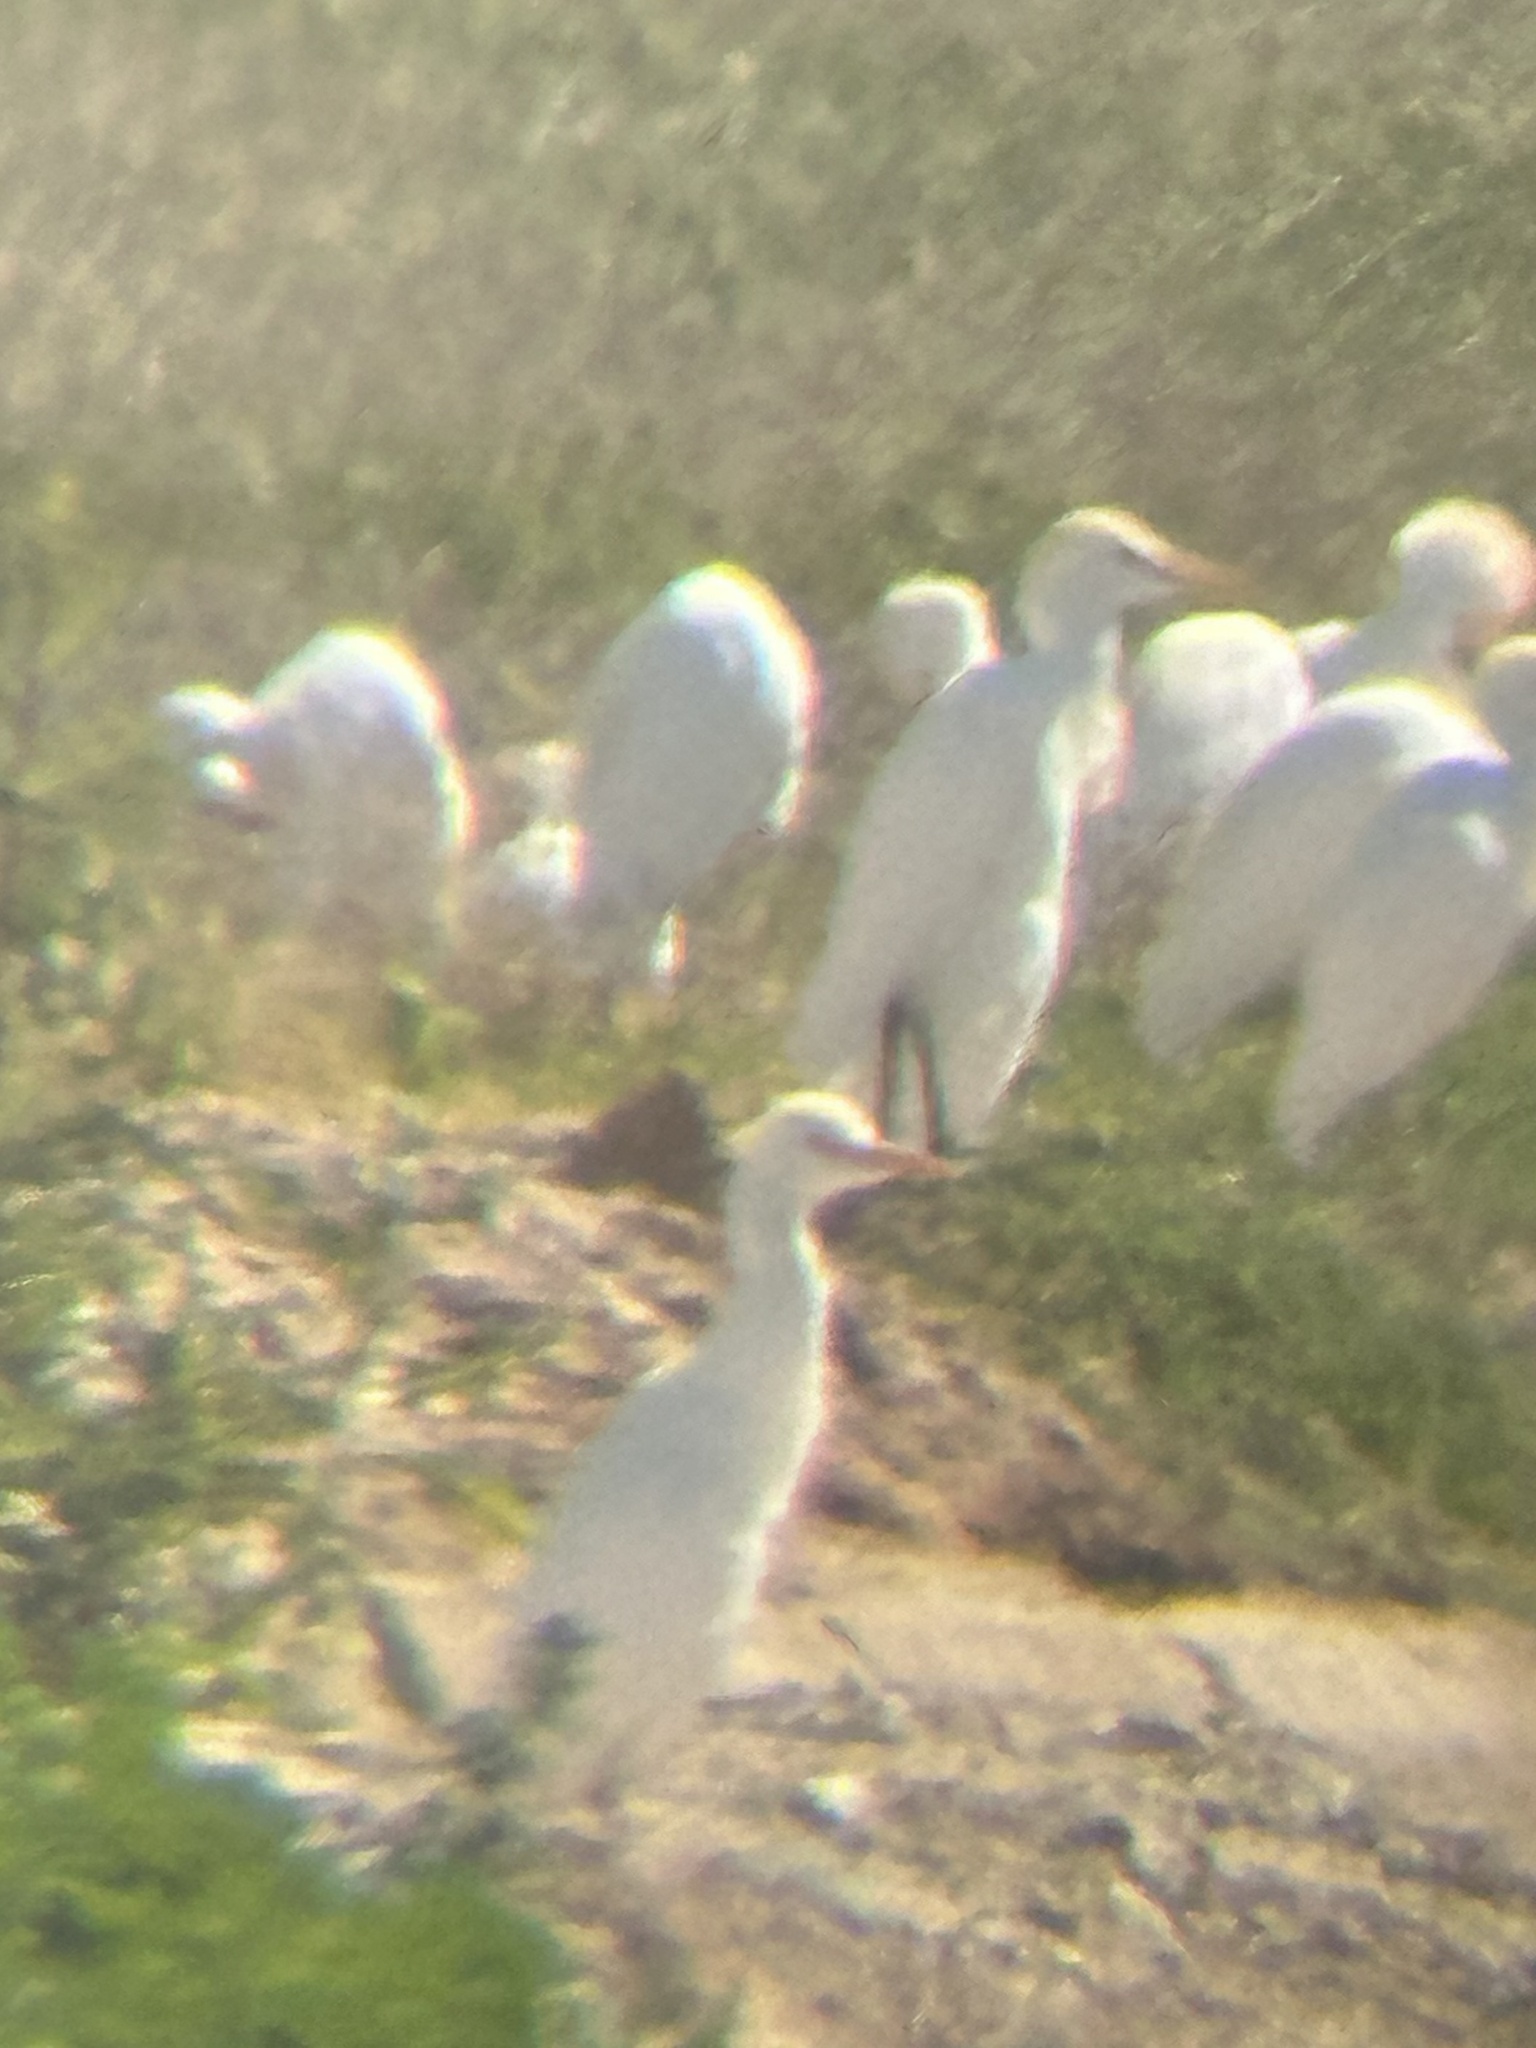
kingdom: Animalia
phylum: Chordata
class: Aves
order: Pelecaniformes
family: Ardeidae
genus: Bubulcus
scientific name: Bubulcus ibis
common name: Cattle egret
